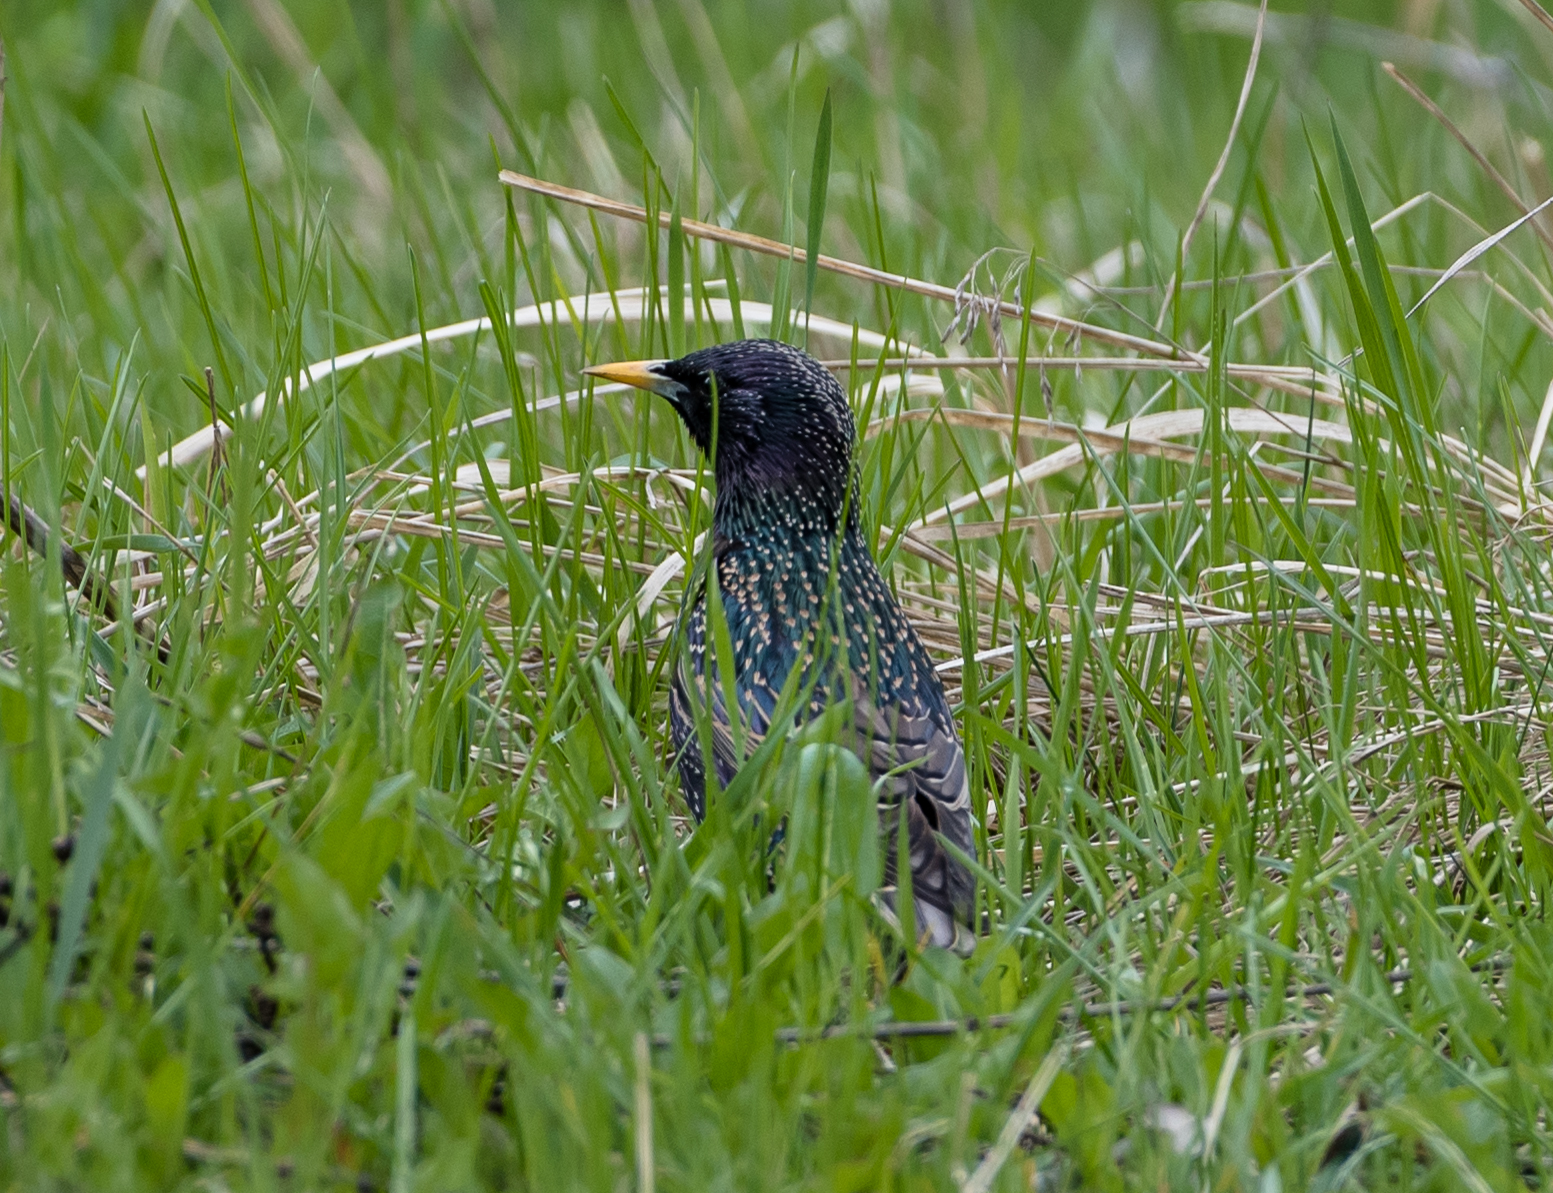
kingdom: Animalia
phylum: Chordata
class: Aves
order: Passeriformes
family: Sturnidae
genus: Sturnus
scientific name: Sturnus vulgaris
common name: Common starling
